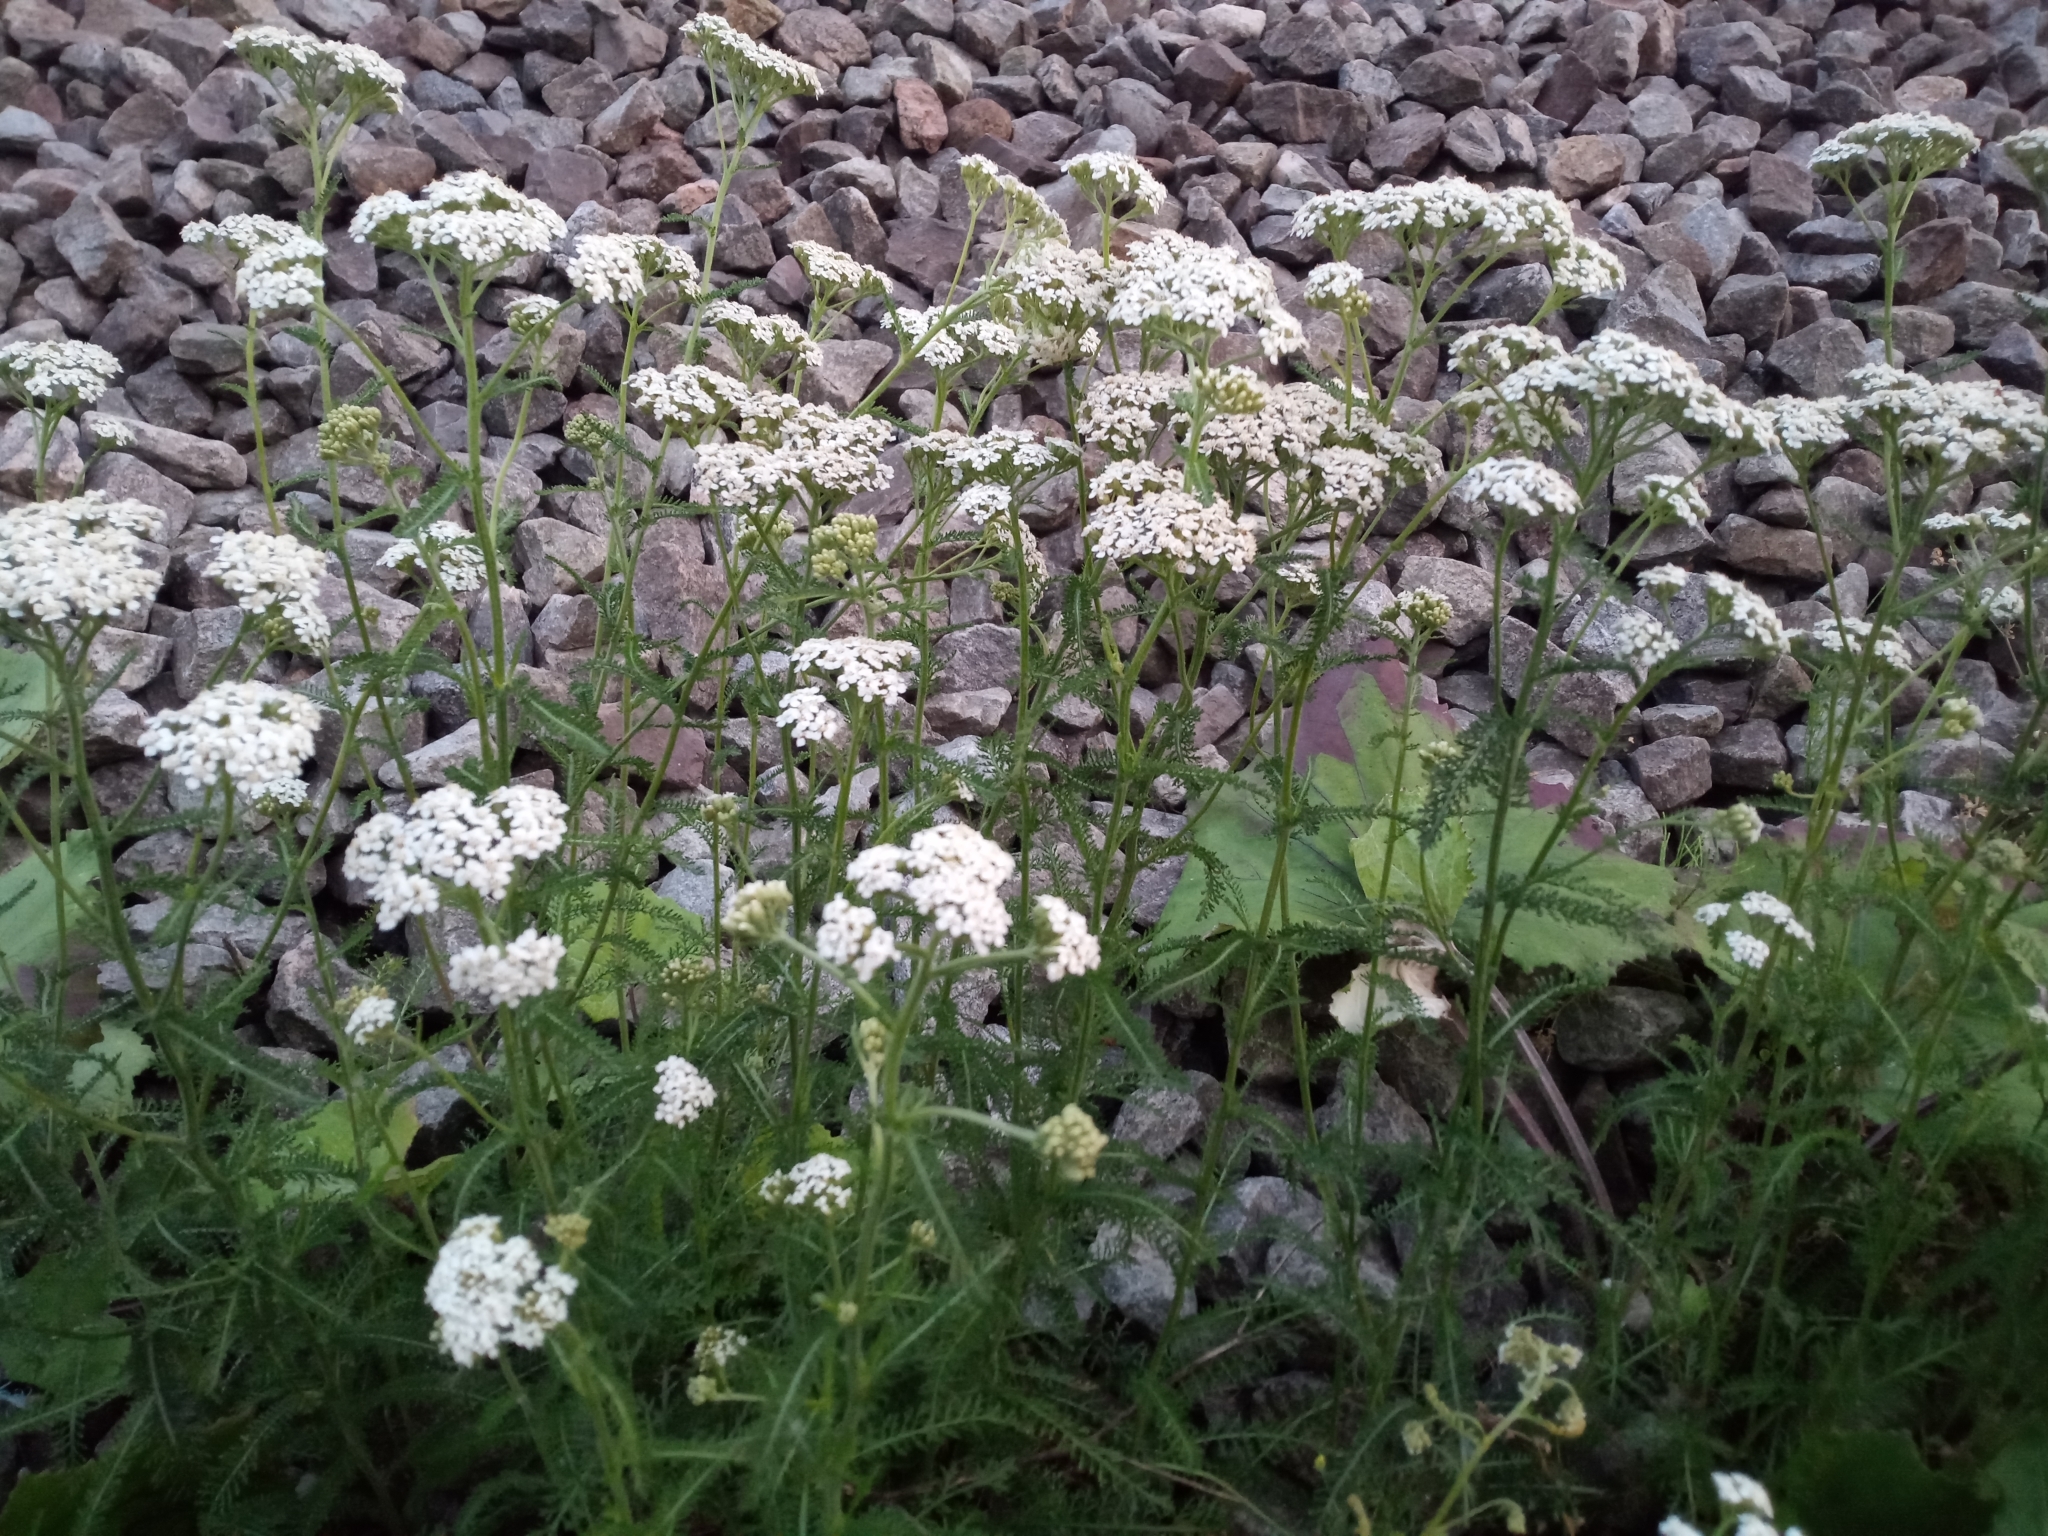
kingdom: Plantae
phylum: Tracheophyta
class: Magnoliopsida
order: Asterales
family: Asteraceae
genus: Achillea
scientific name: Achillea millefolium
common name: Yarrow
